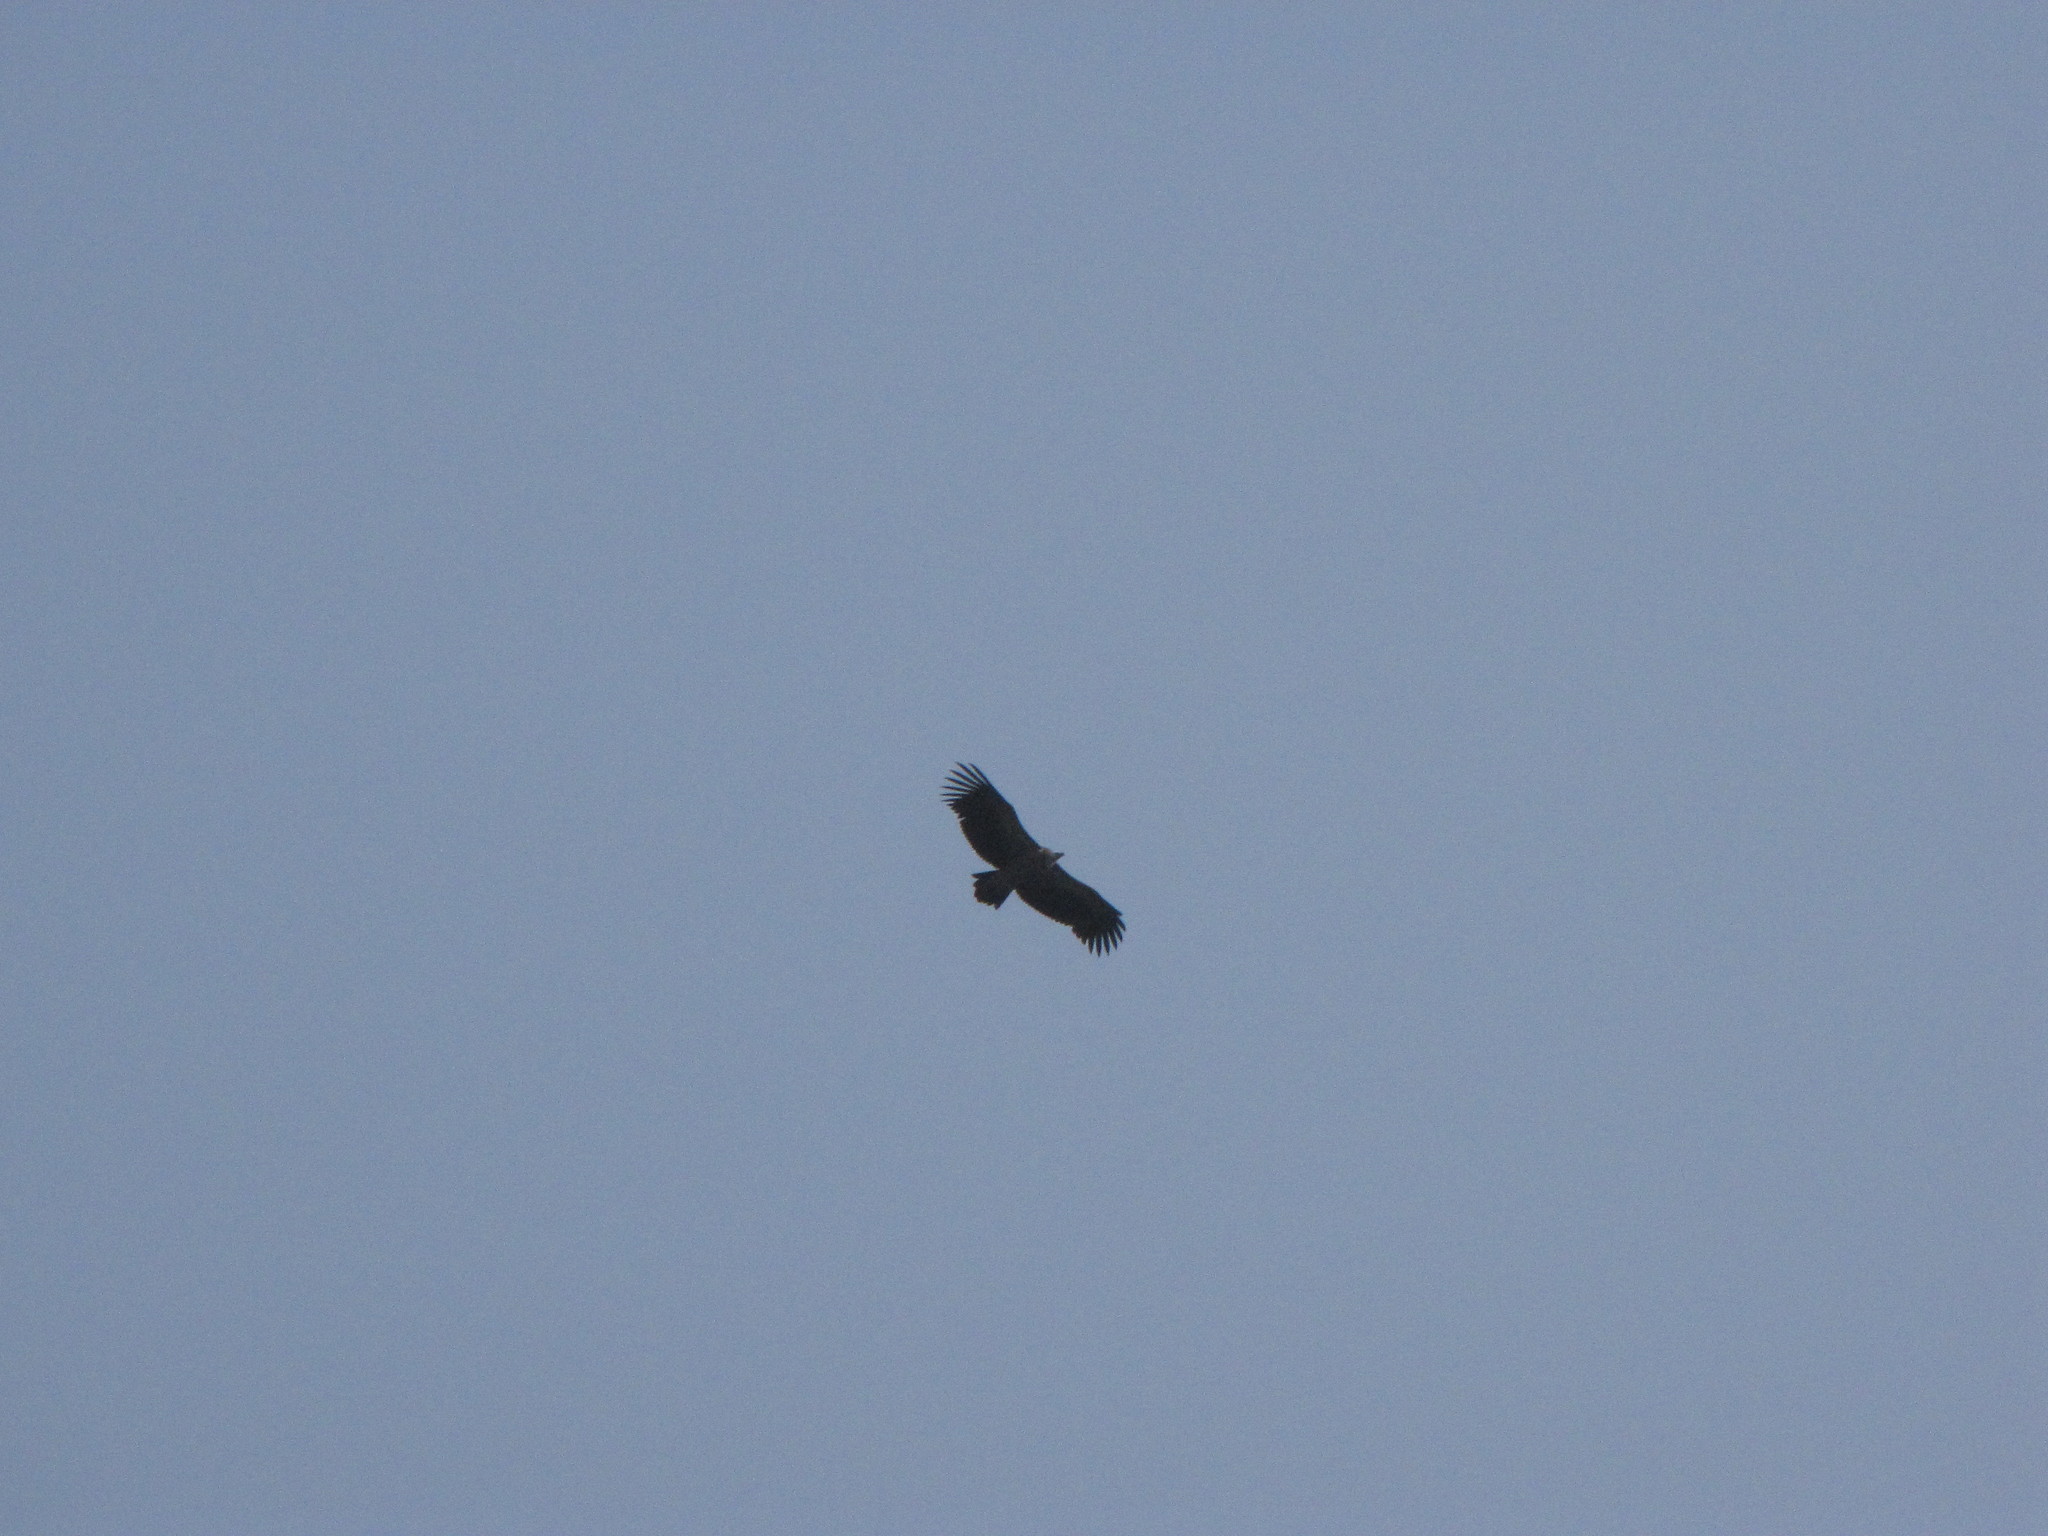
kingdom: Animalia
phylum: Chordata
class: Aves
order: Accipitriformes
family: Accipitridae
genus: Gyps
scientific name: Gyps himalayensis
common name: Himalayan griffon
